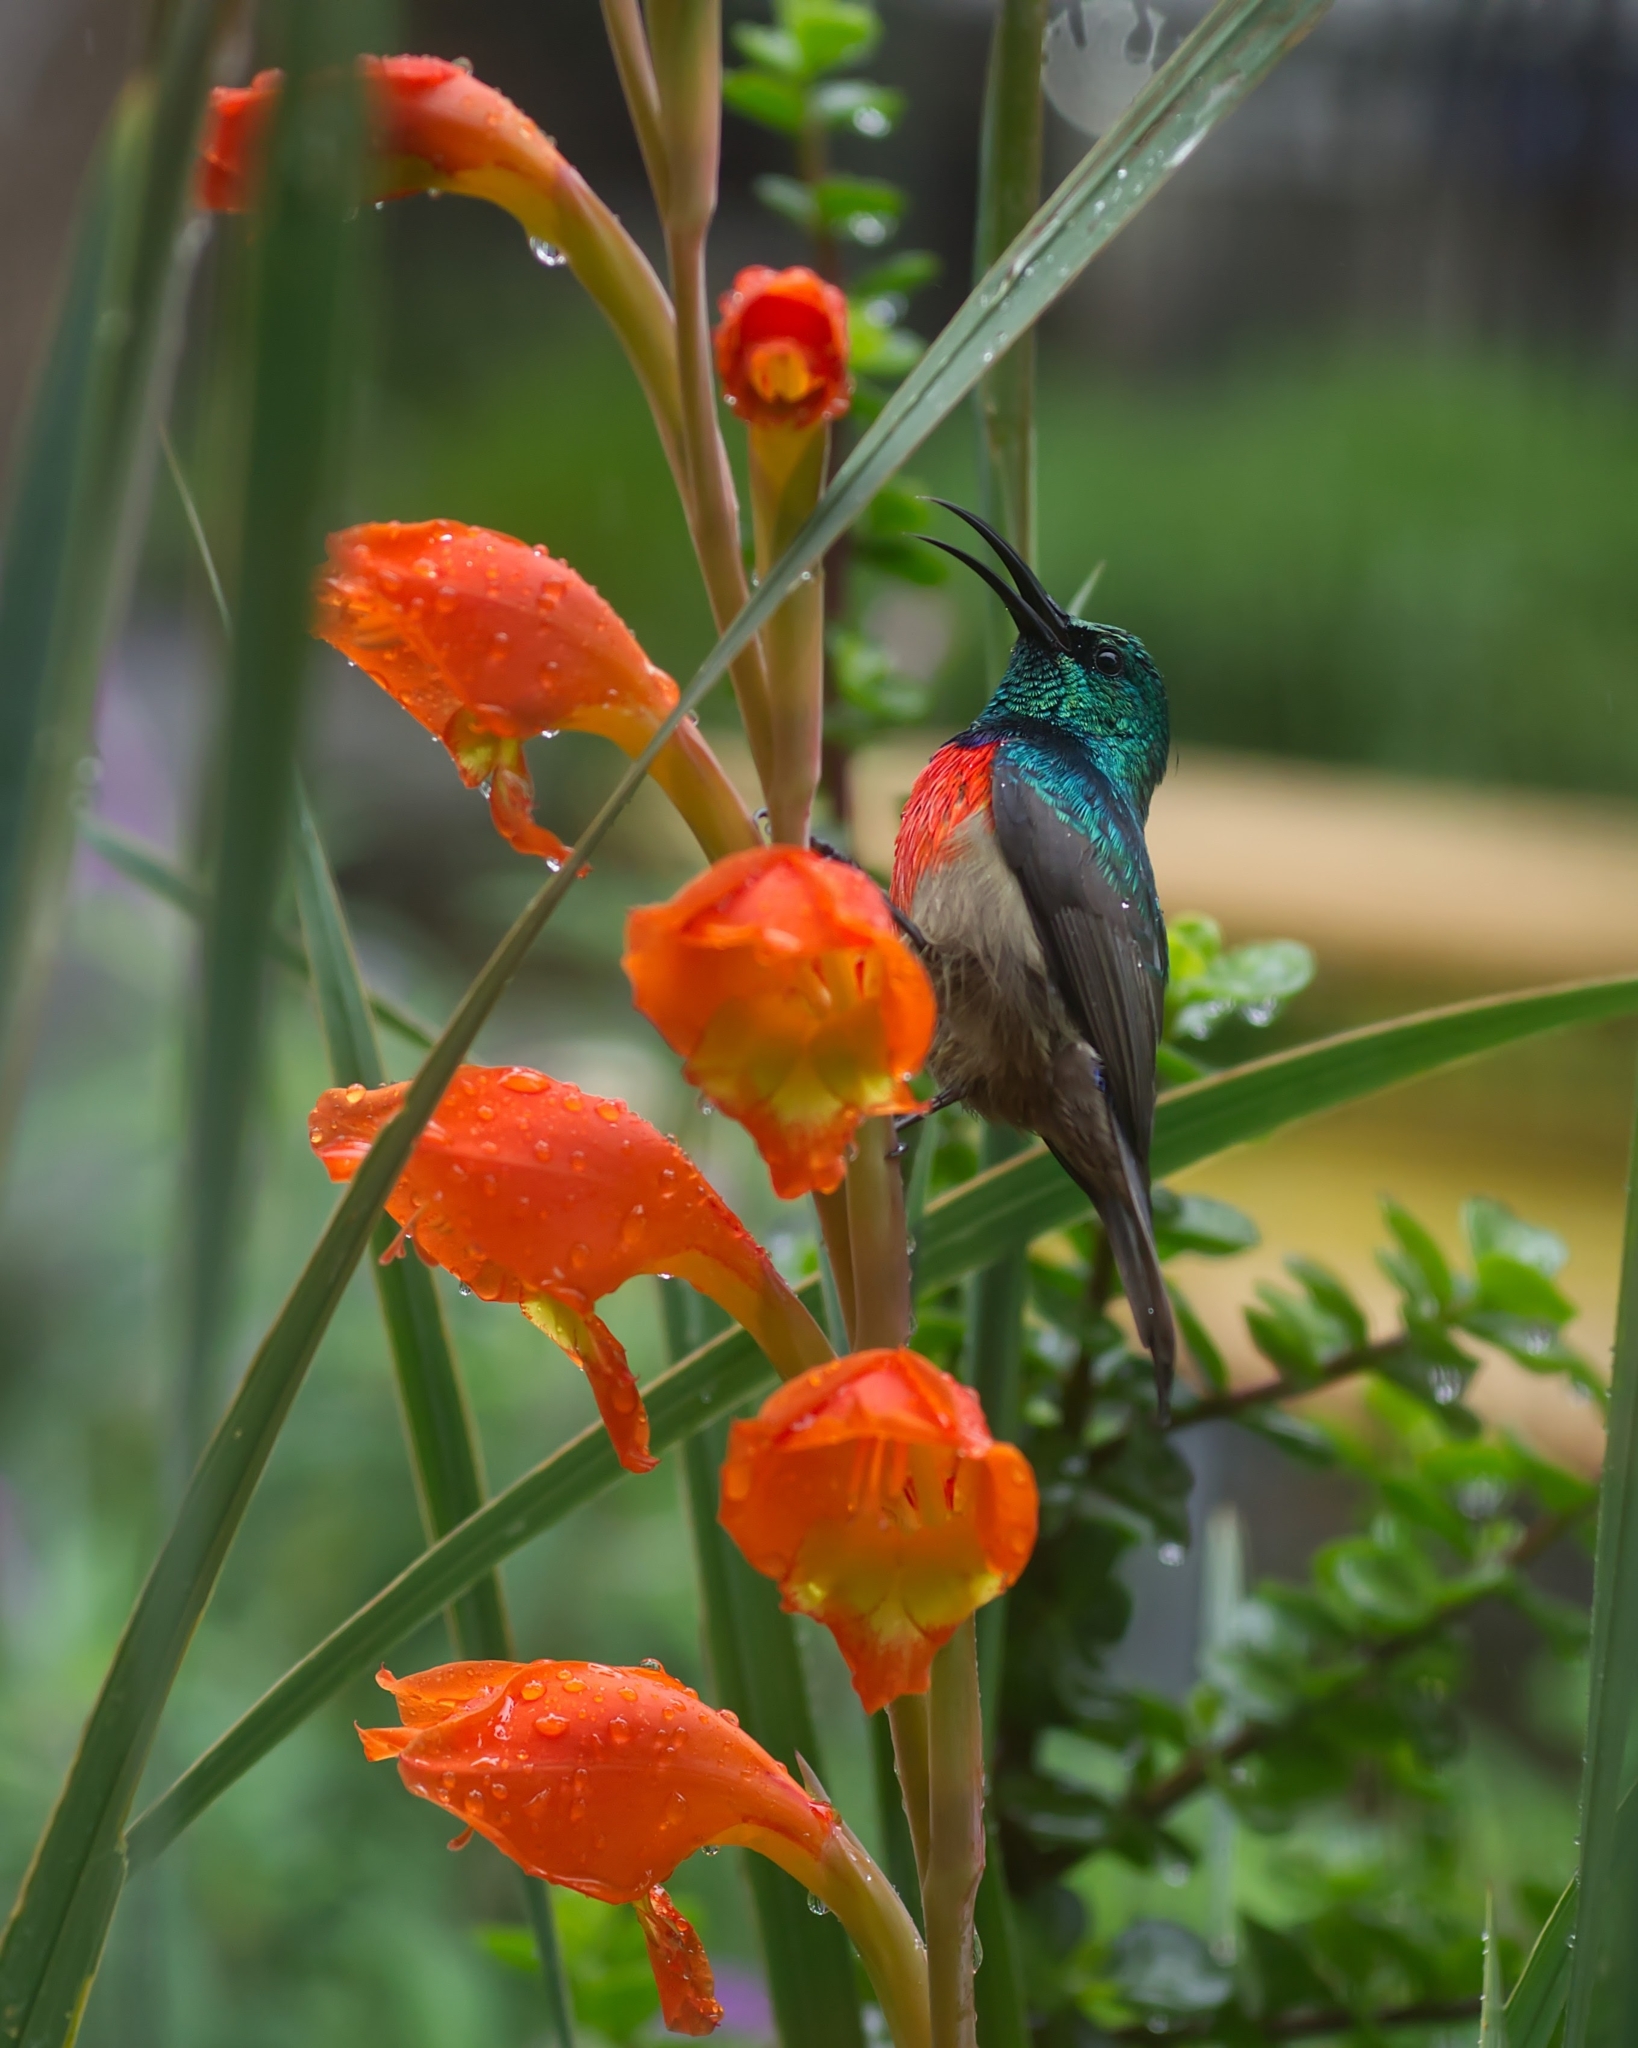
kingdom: Animalia
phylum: Chordata
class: Aves
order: Passeriformes
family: Nectariniidae
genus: Cinnyris
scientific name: Cinnyris afer
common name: Greater double-collared sunbird
